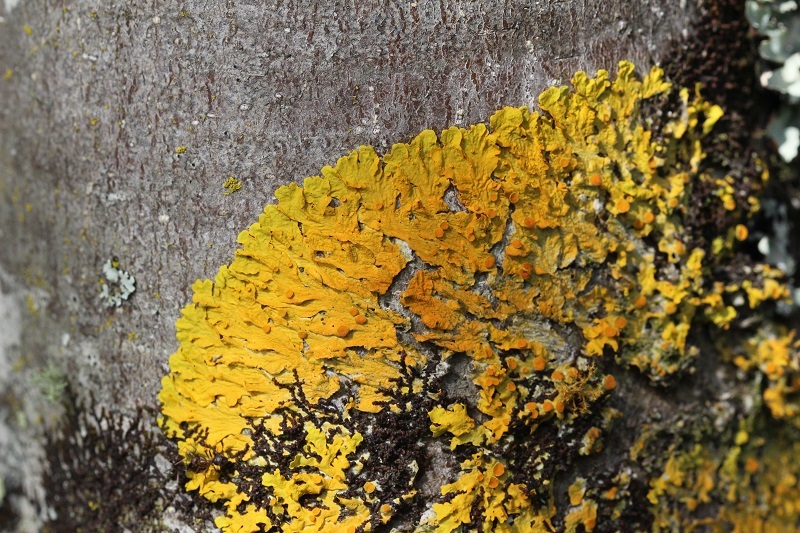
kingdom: Fungi
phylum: Ascomycota
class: Lecanoromycetes
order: Teloschistales
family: Teloschistaceae
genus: Xanthoria
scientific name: Xanthoria parietina
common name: Common orange lichen
